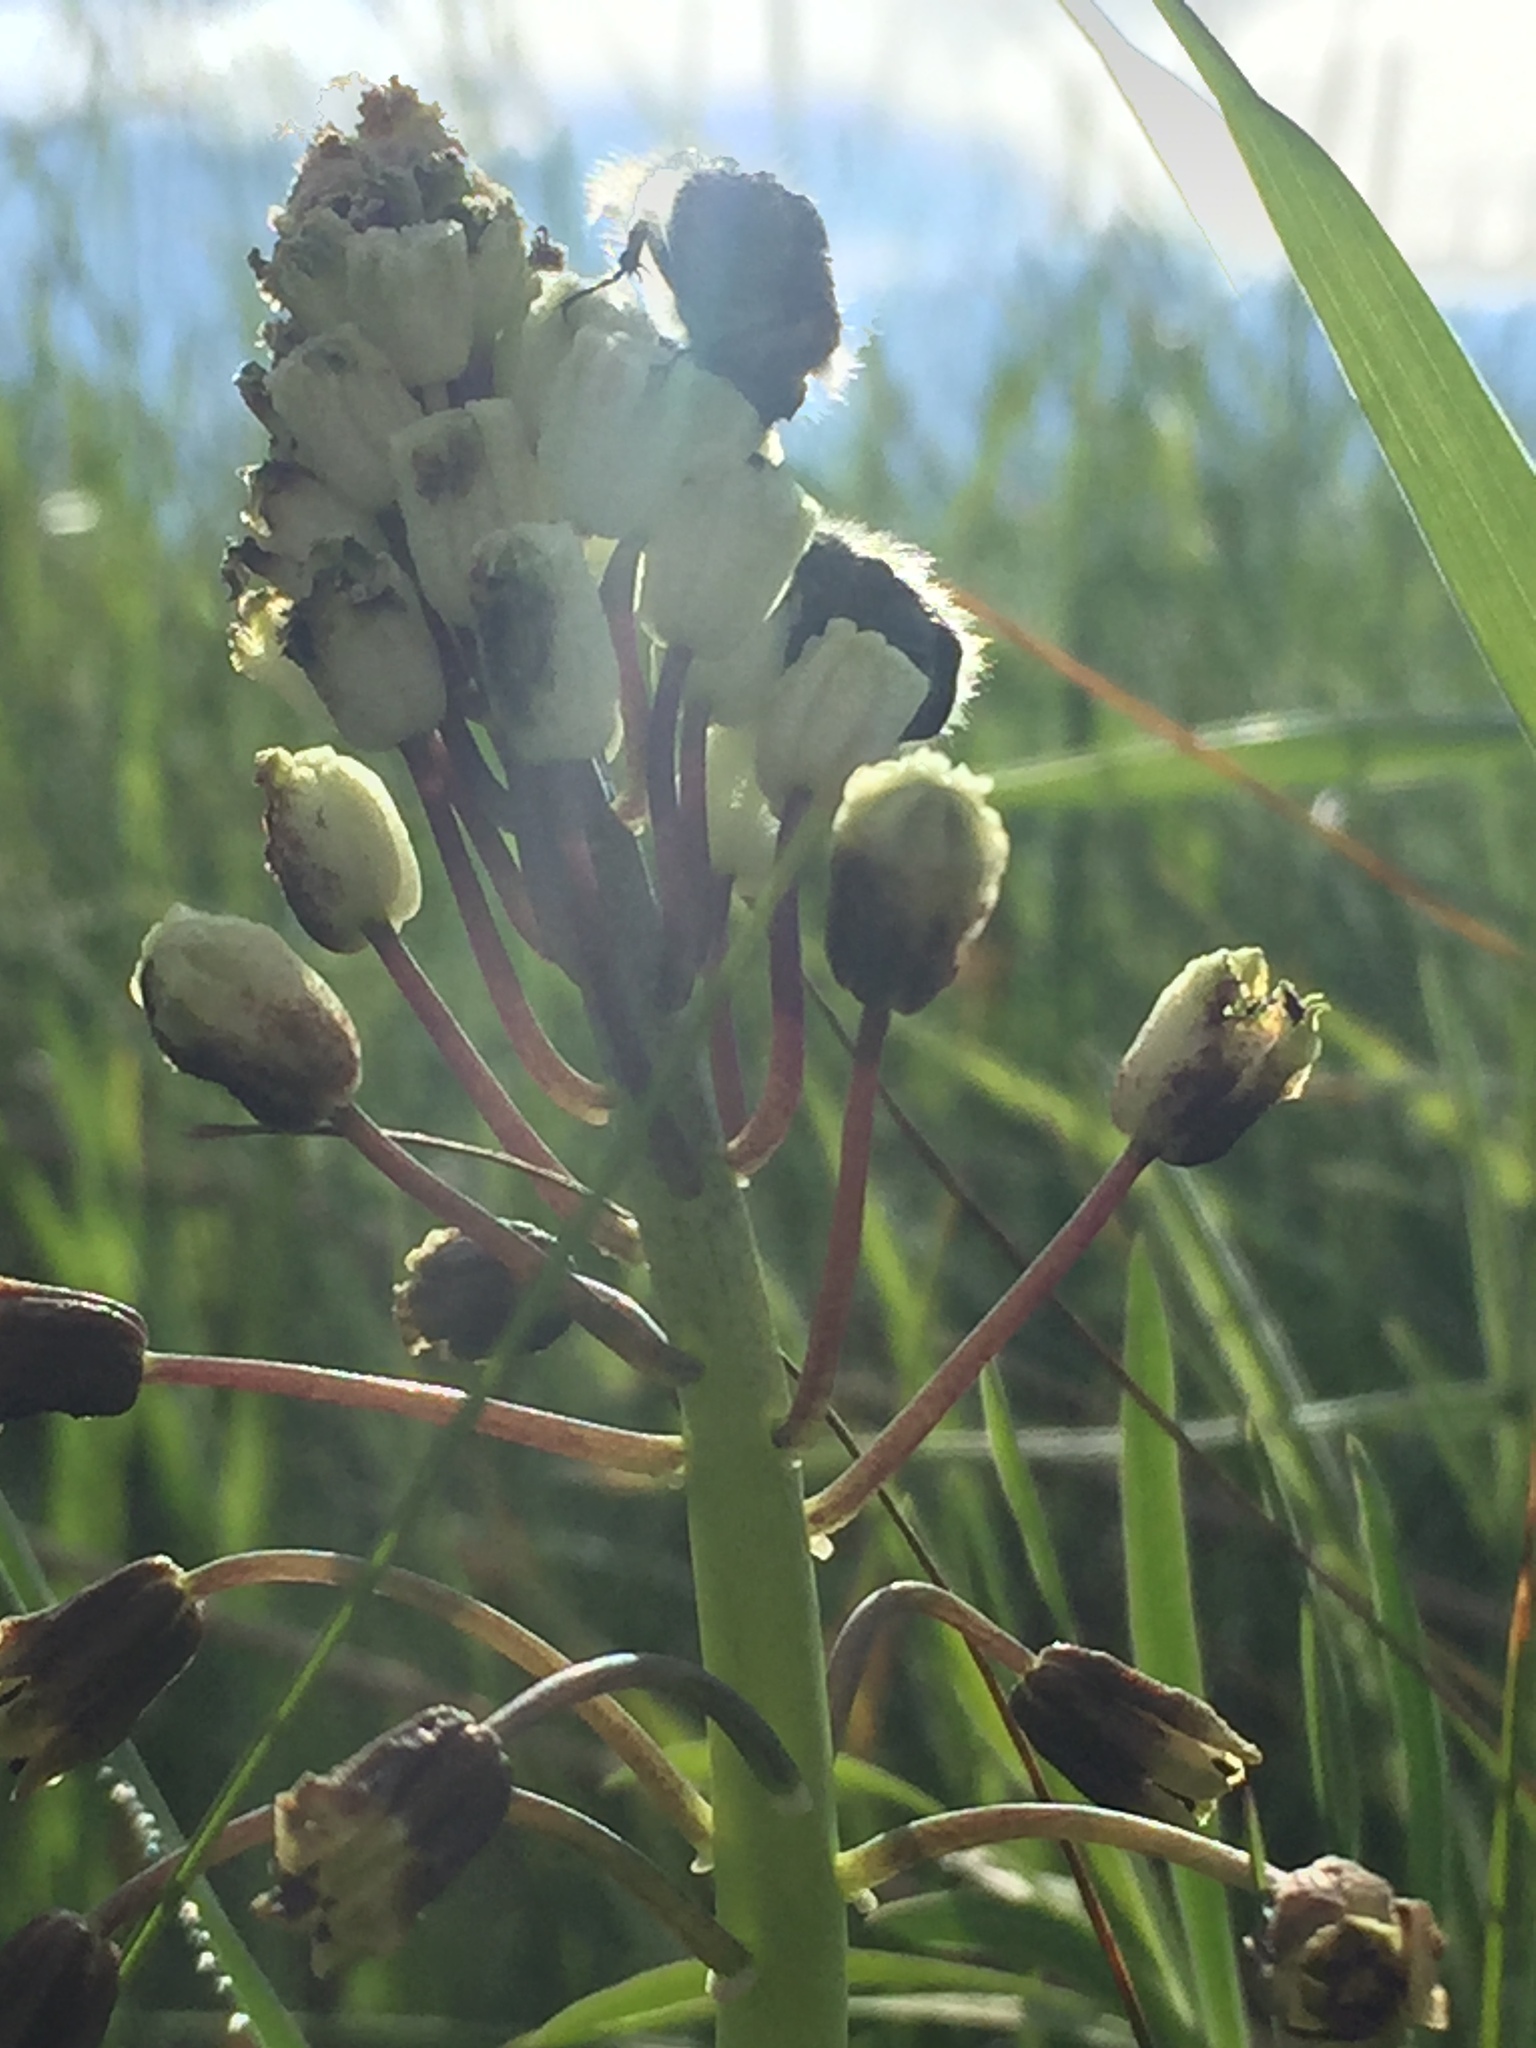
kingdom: Plantae
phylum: Tracheophyta
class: Liliopsida
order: Asparagales
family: Asparagaceae
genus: Bellevalia
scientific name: Bellevalia speciosa
